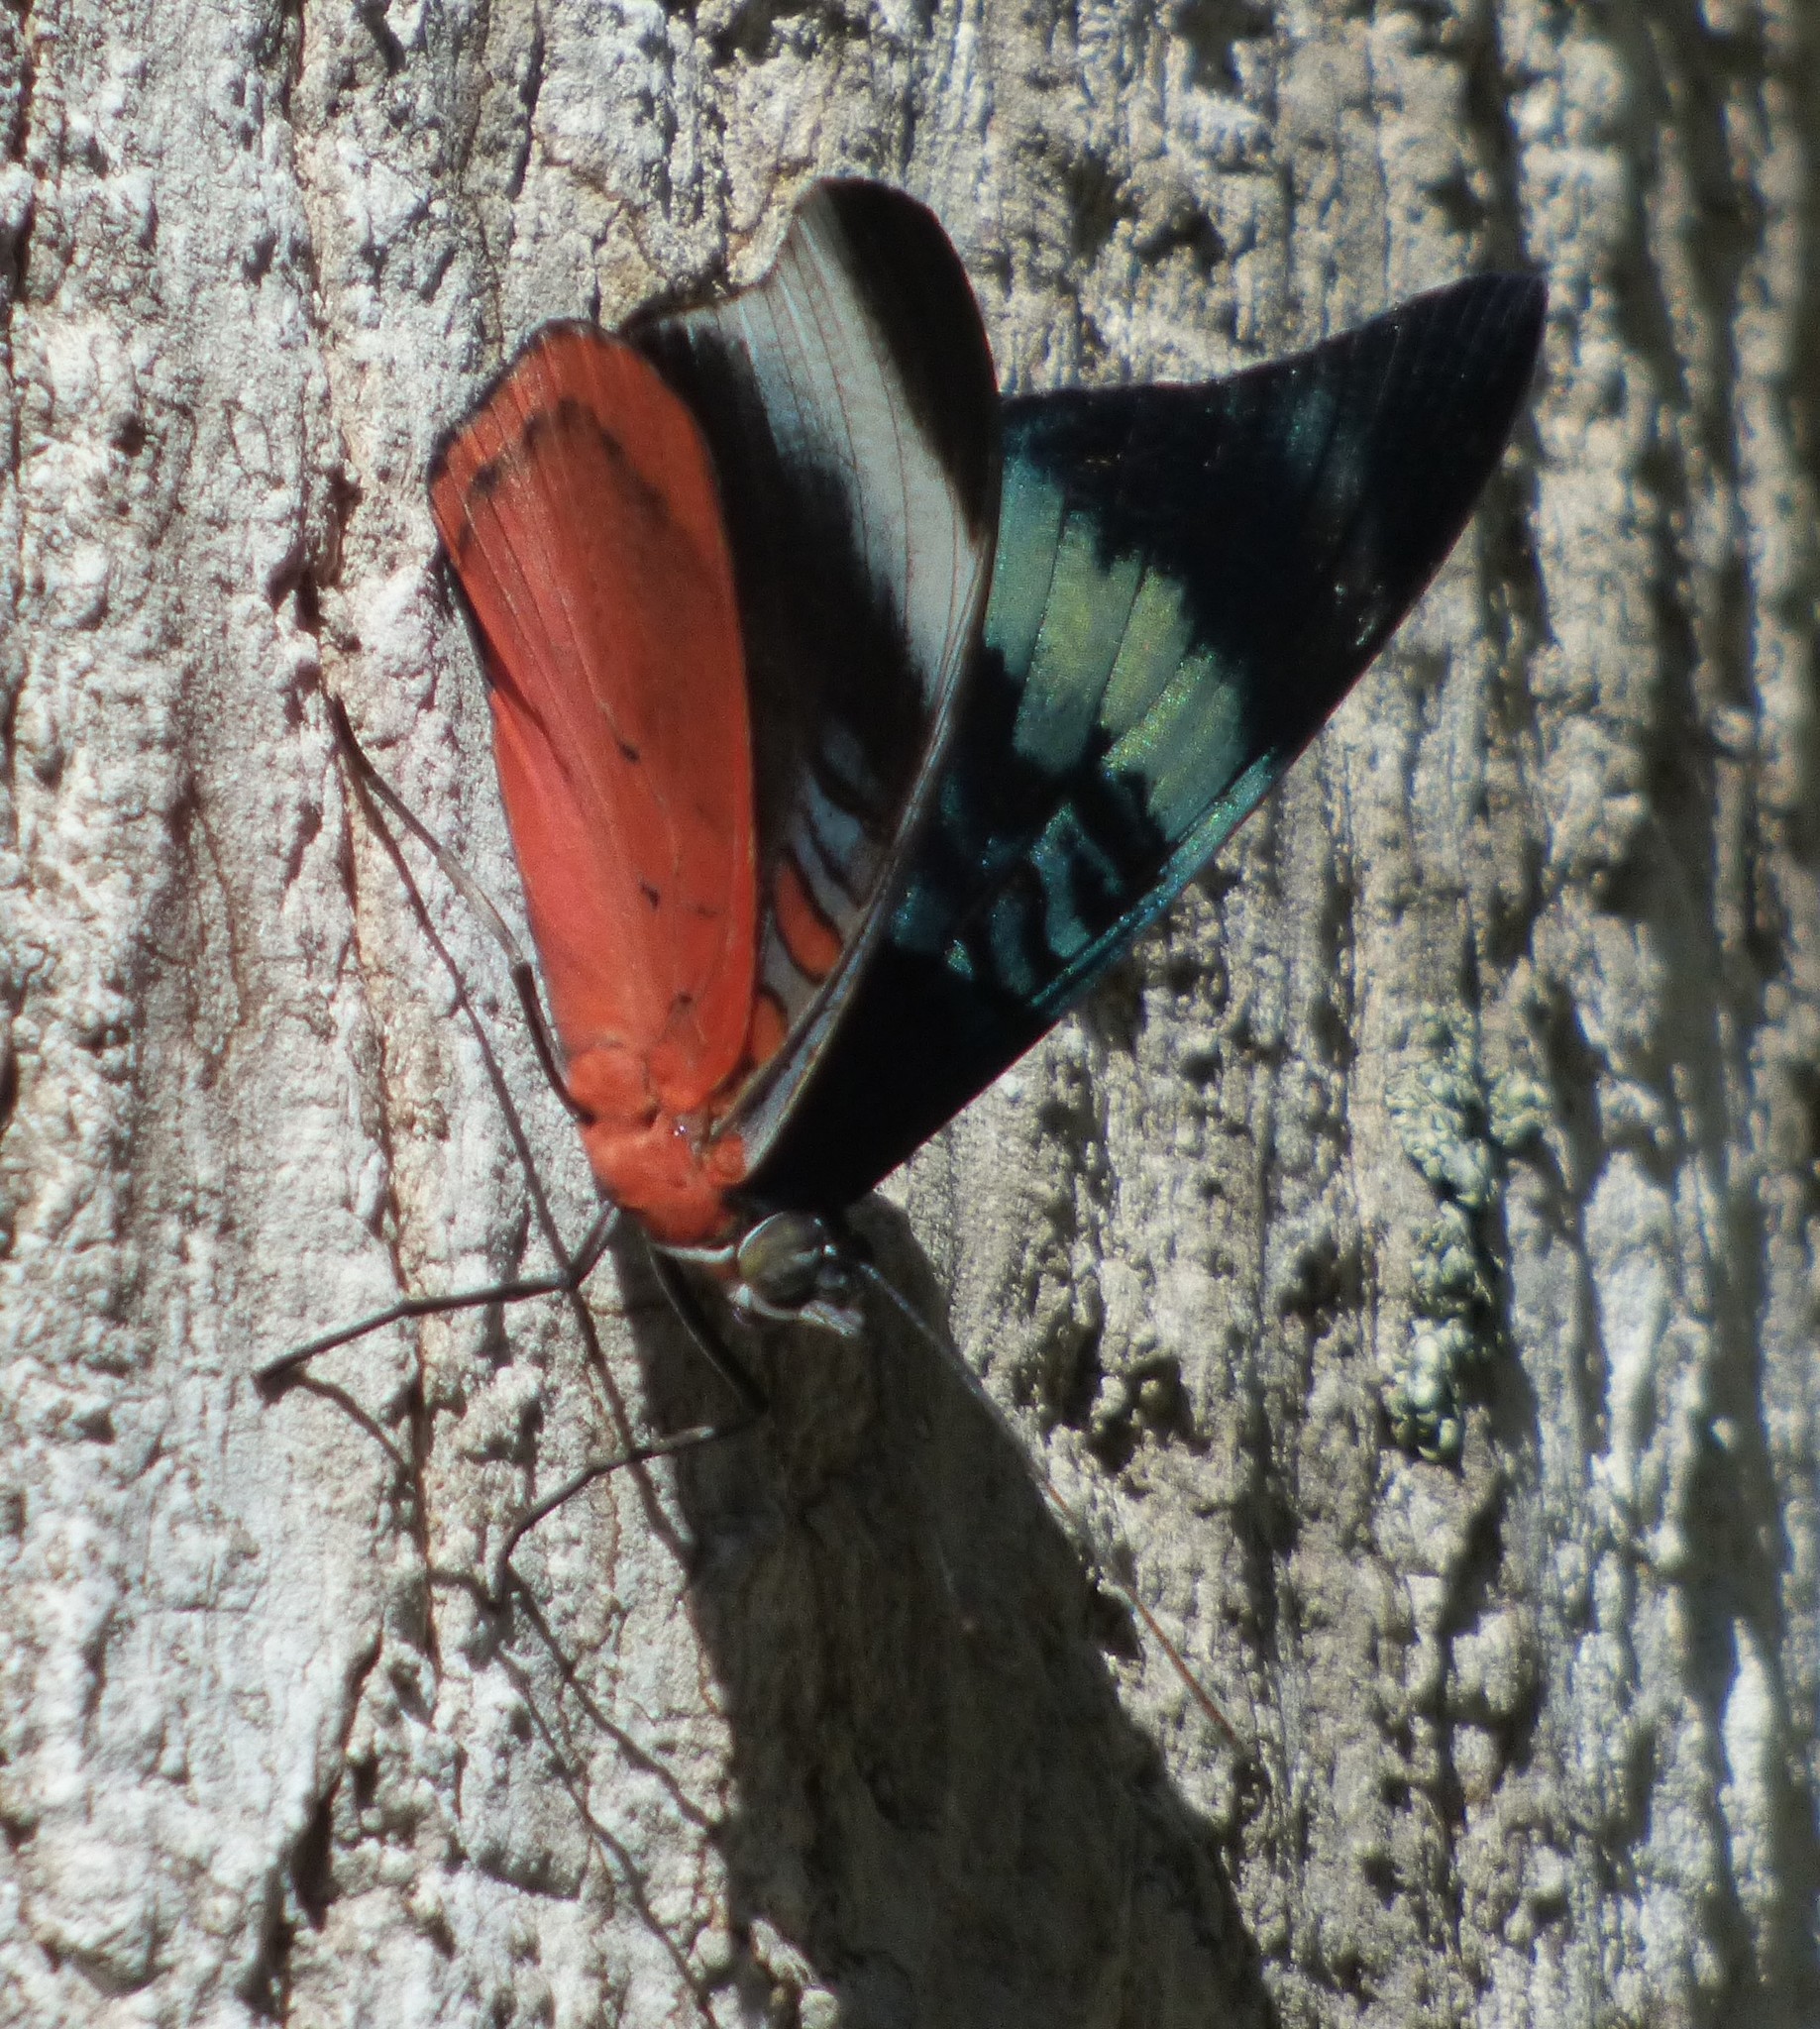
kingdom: Animalia
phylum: Arthropoda
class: Insecta
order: Lepidoptera
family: Nymphalidae
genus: Panacea
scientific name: Panacea prola
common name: Red flasher
